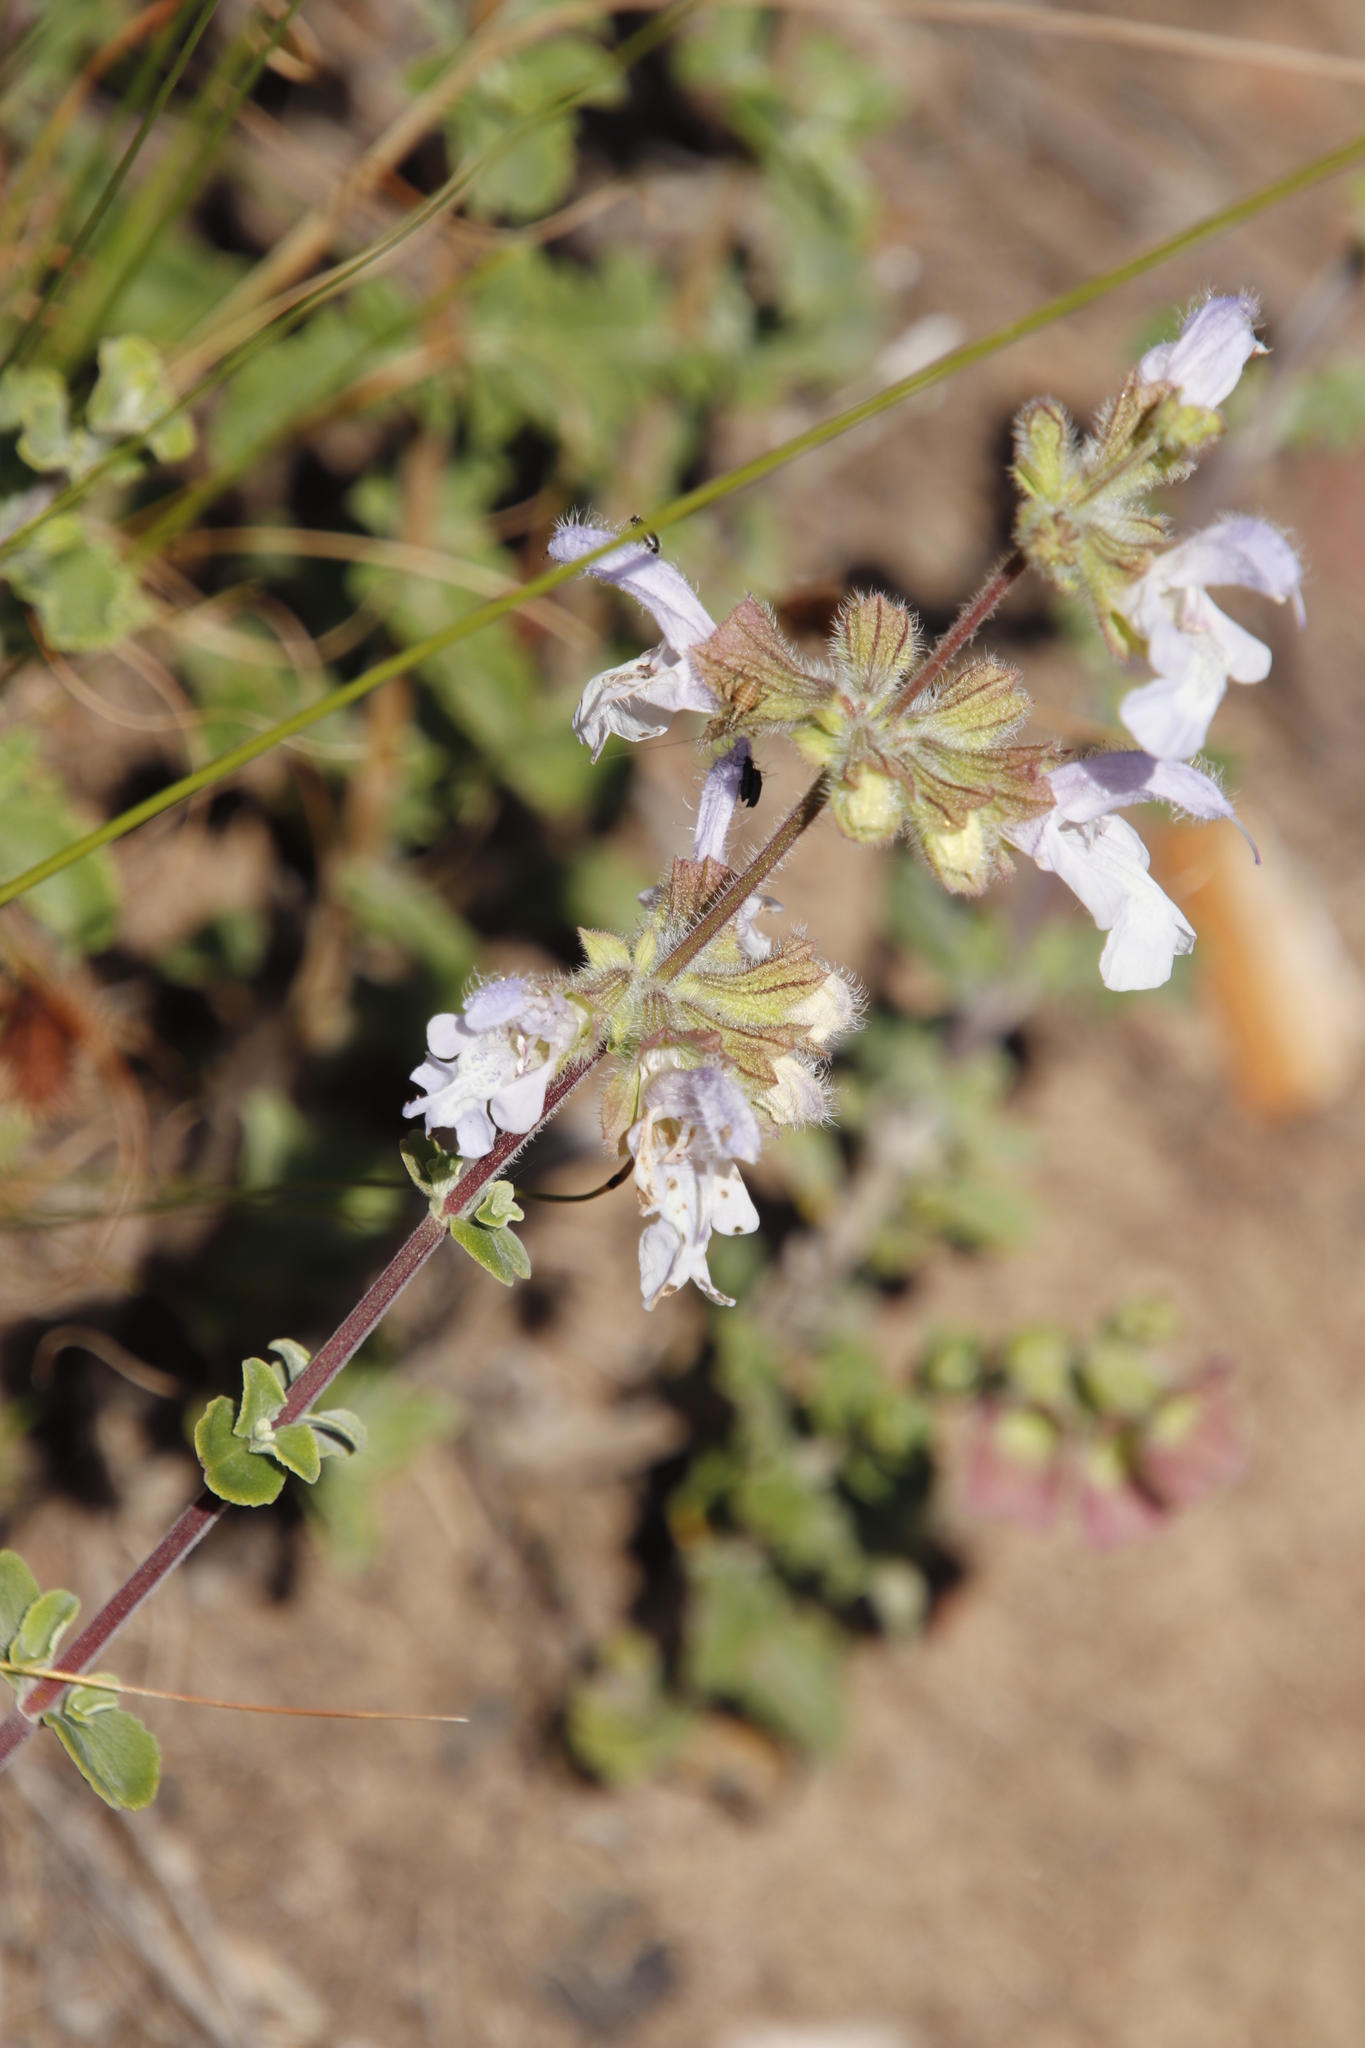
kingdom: Plantae
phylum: Tracheophyta
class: Magnoliopsida
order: Lamiales
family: Lamiaceae
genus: Salvia
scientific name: Salvia africana
